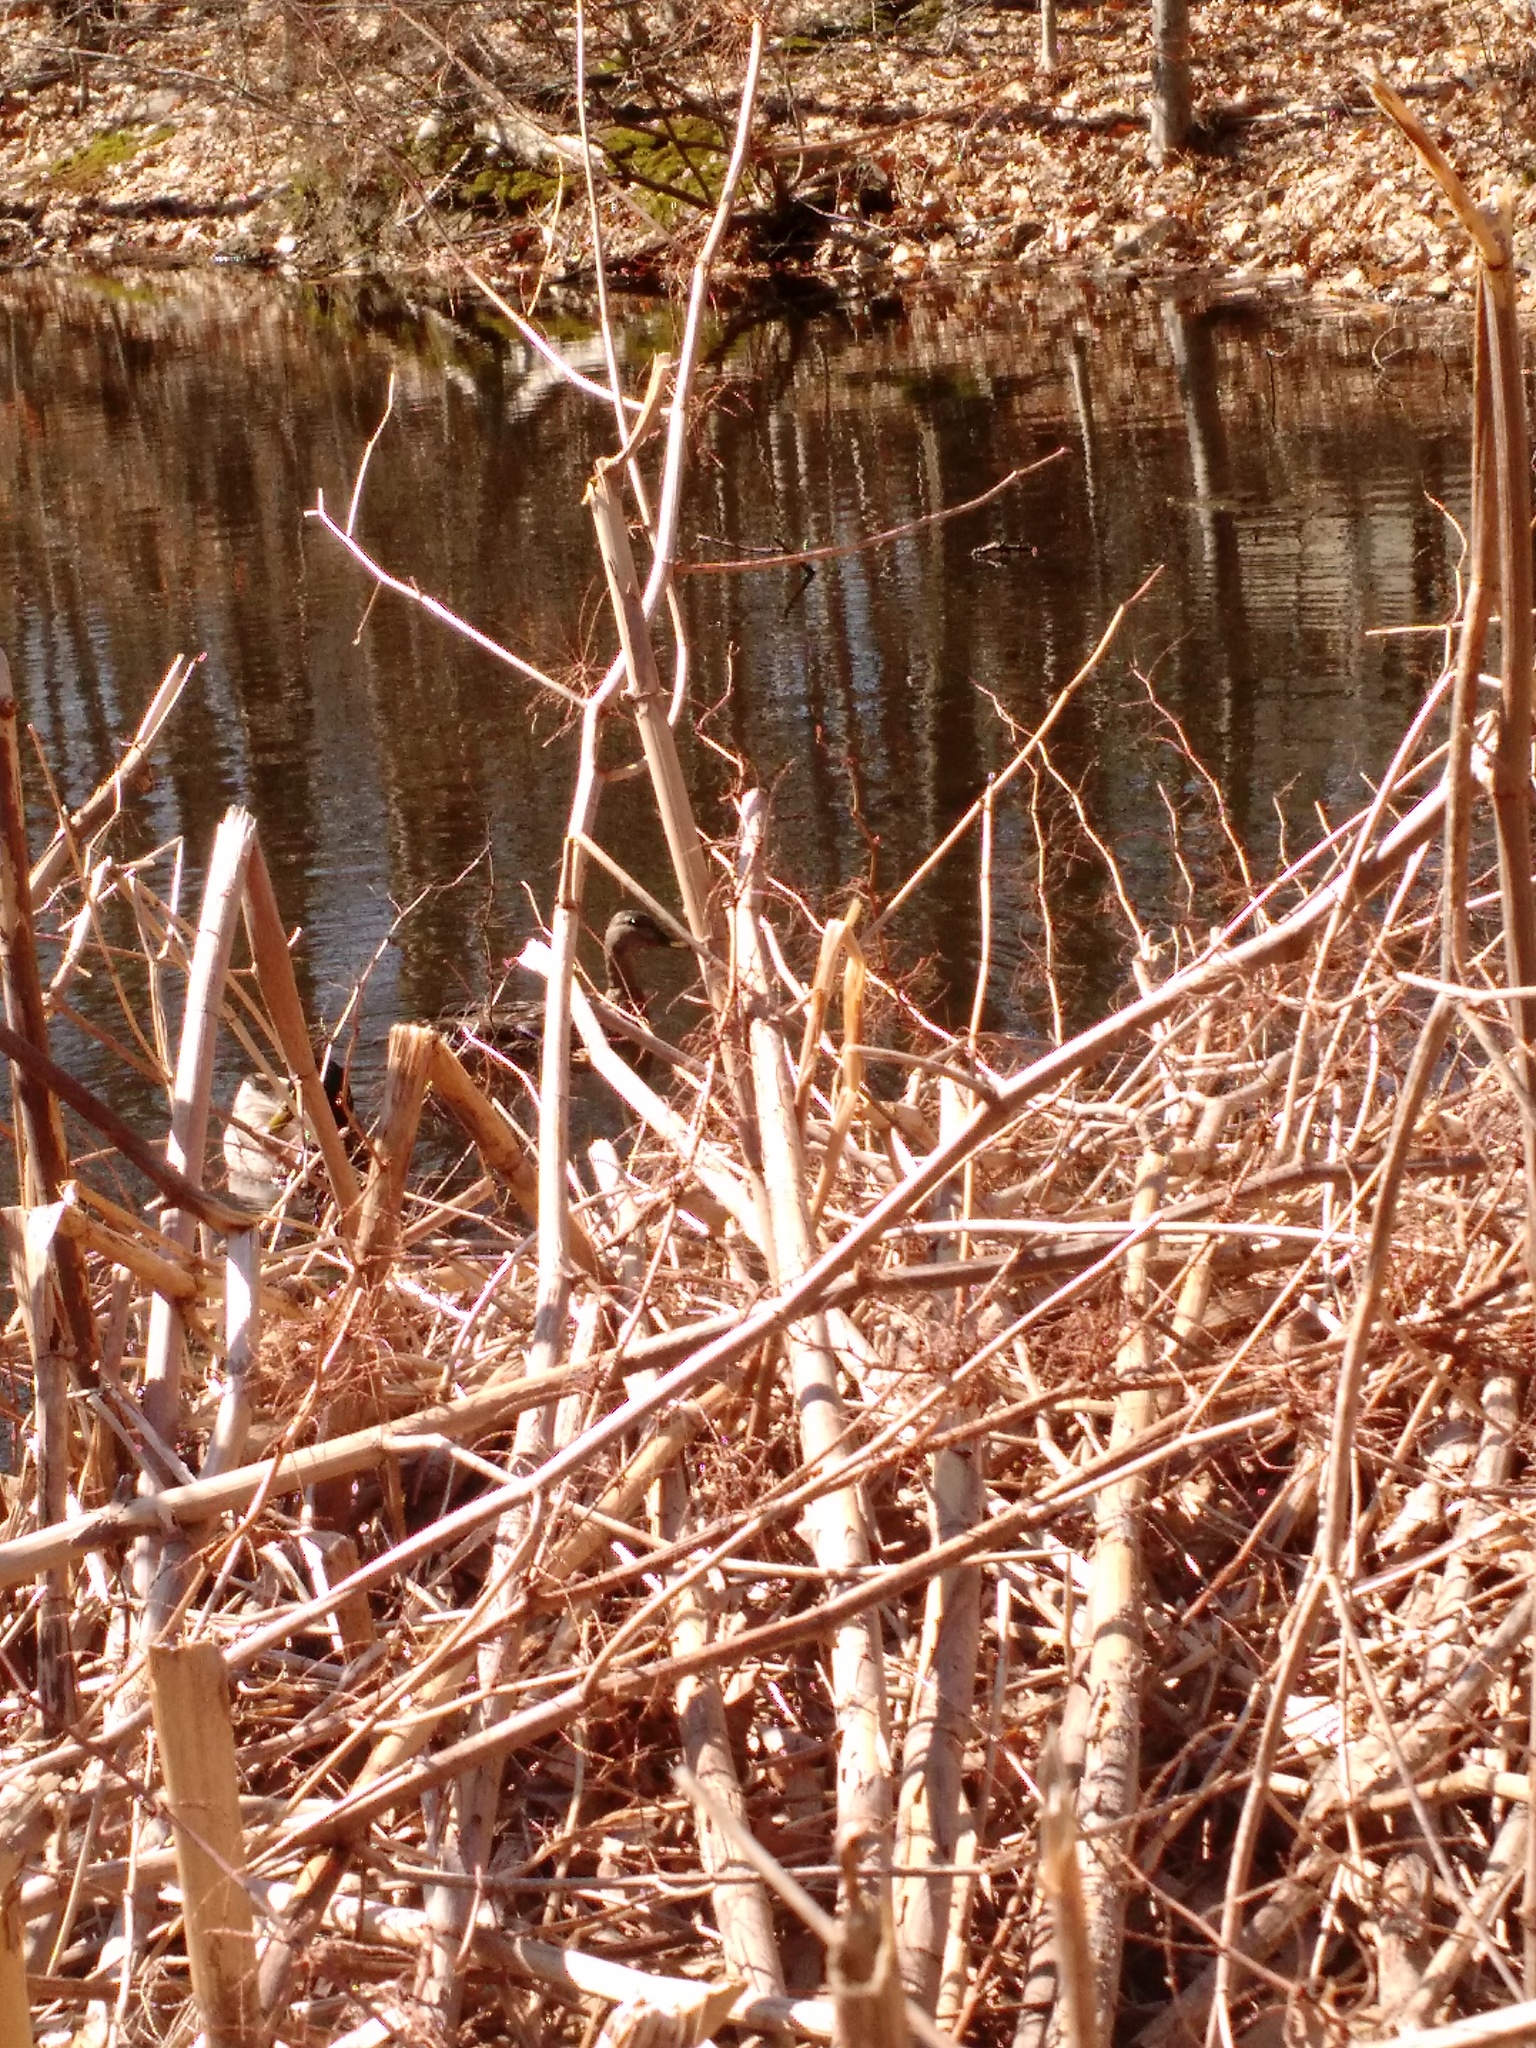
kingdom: Animalia
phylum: Chordata
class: Aves
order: Anseriformes
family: Anatidae
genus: Anas
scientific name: Anas platyrhynchos
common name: Mallard
